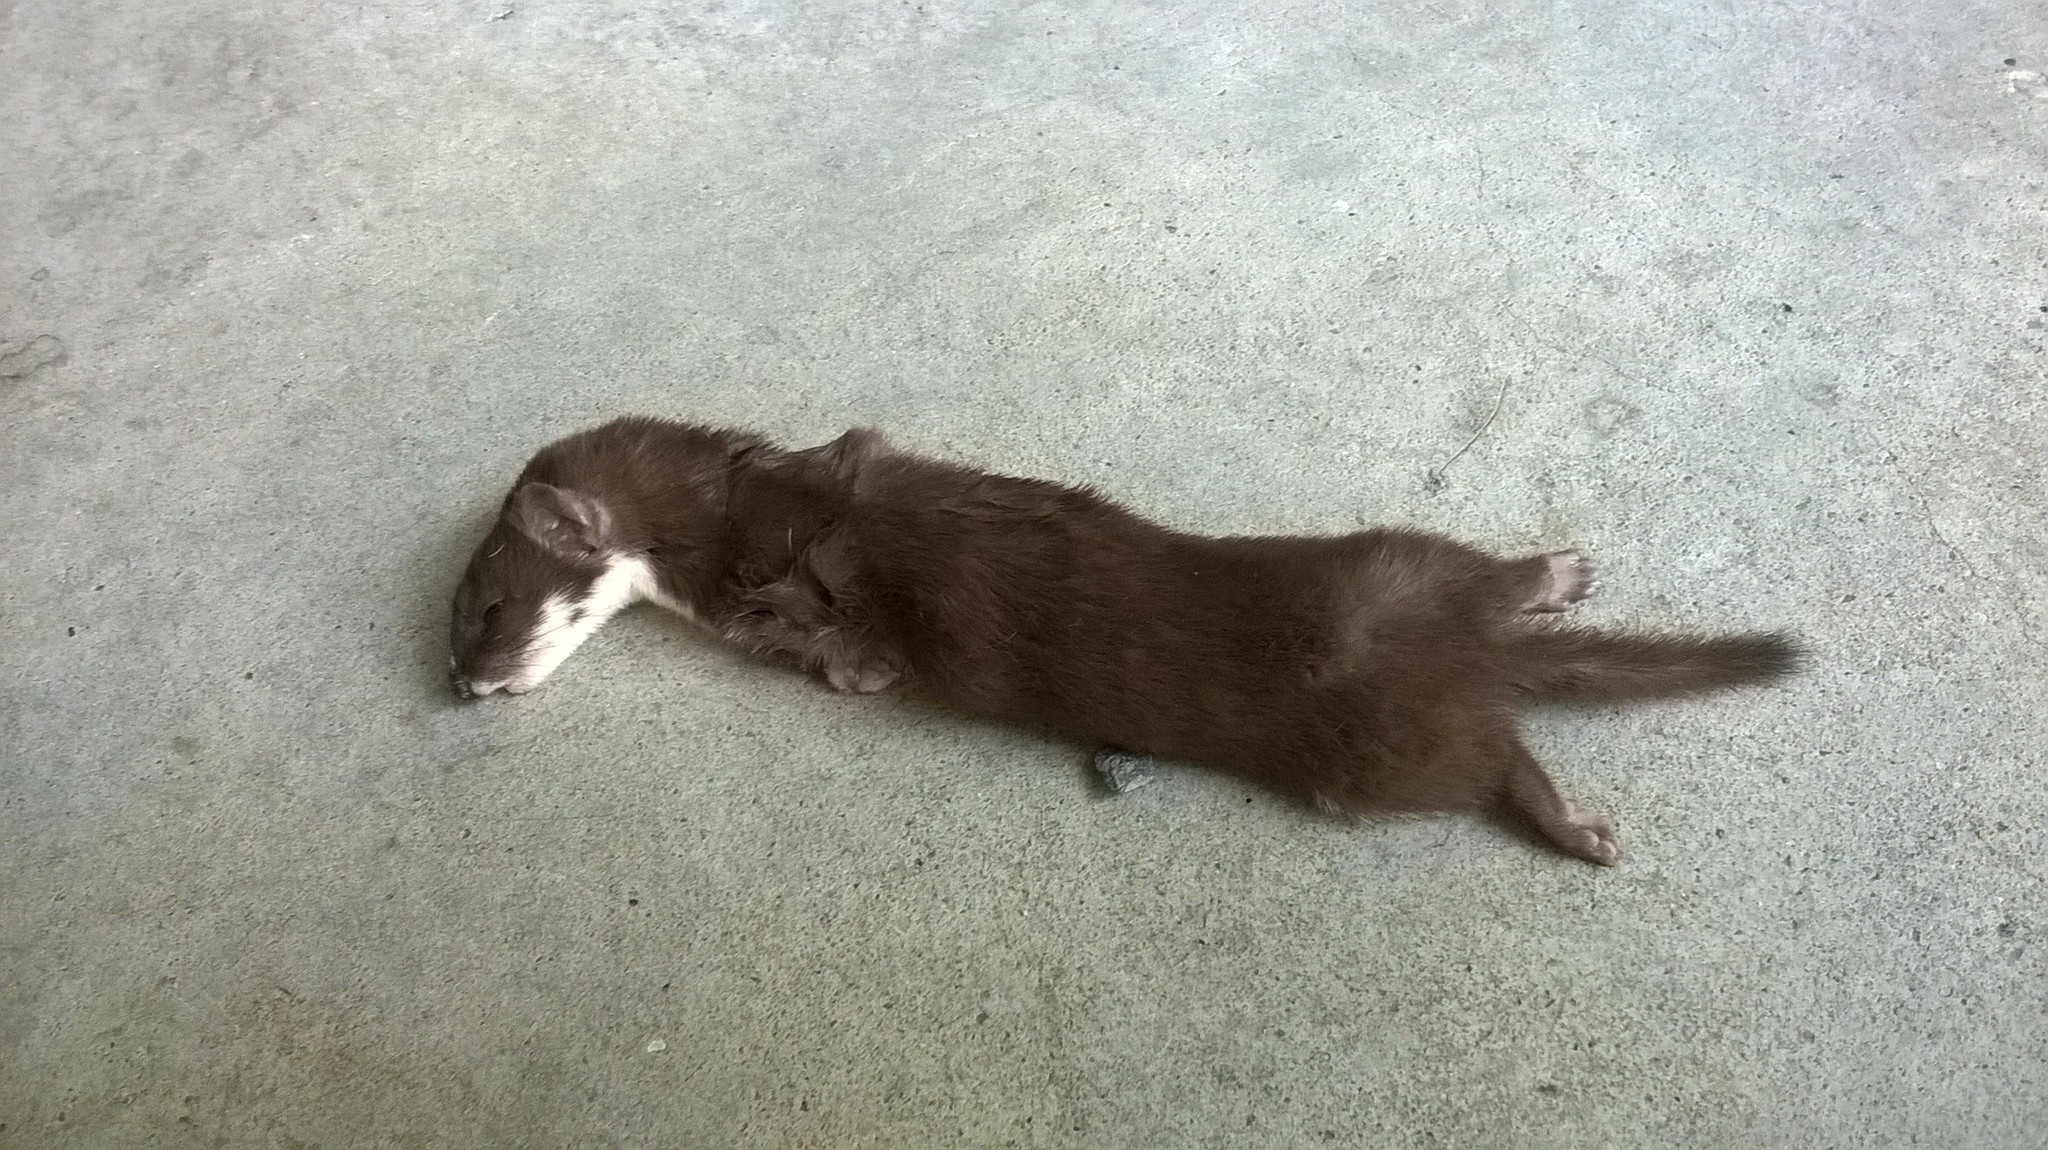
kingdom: Animalia
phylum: Chordata
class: Mammalia
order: Carnivora
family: Mustelidae
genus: Mustela
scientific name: Mustela nivalis
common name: Least weasel
